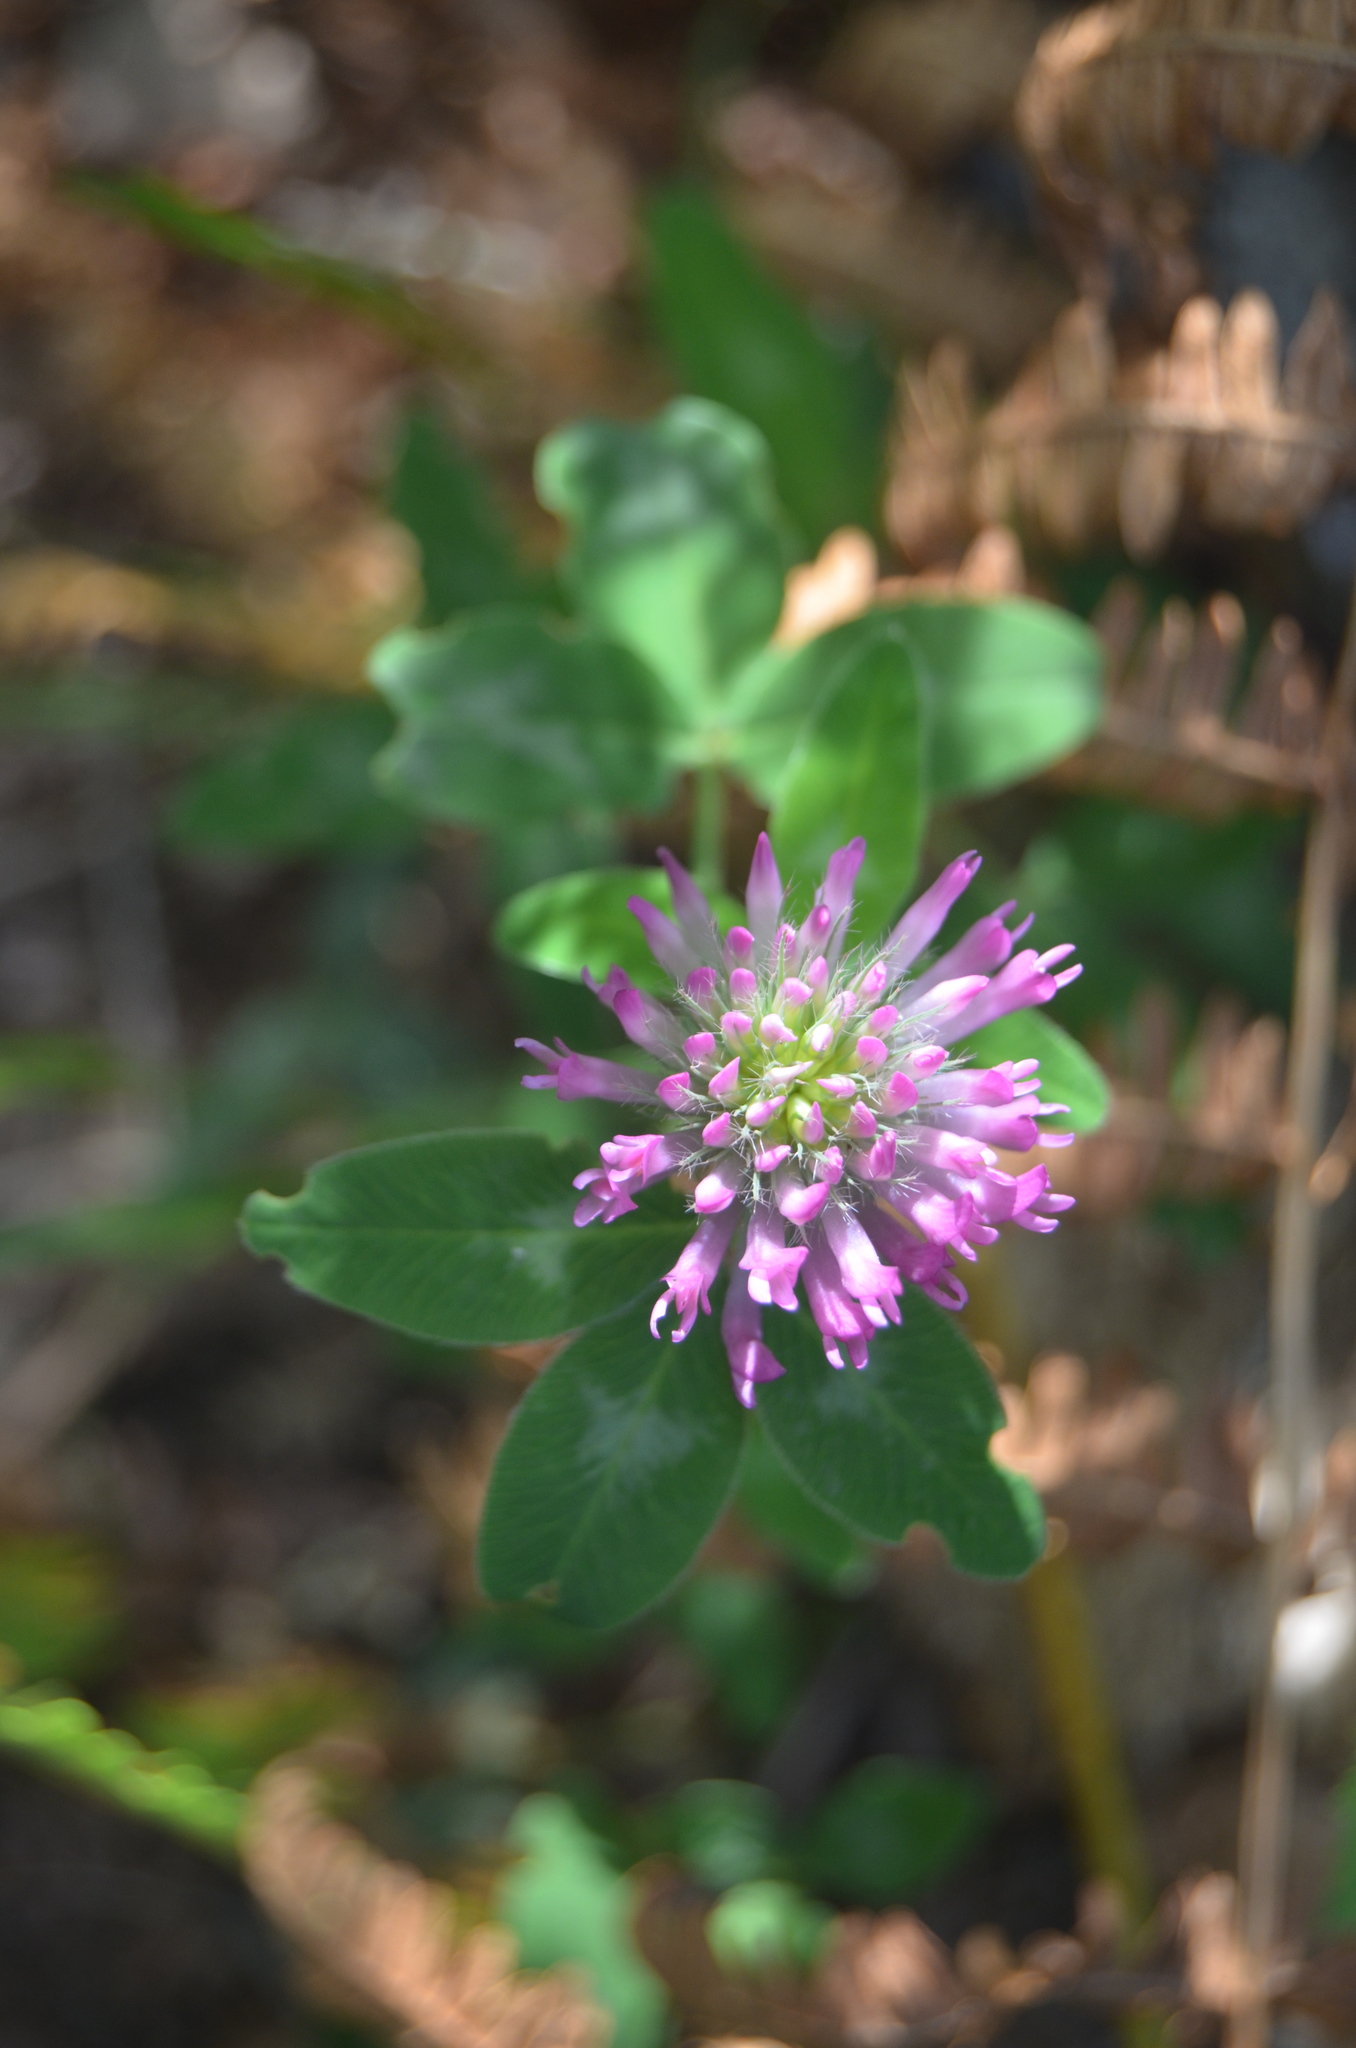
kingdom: Plantae
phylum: Tracheophyta
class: Magnoliopsida
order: Fabales
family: Fabaceae
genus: Trifolium
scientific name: Trifolium pratense
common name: Red clover
